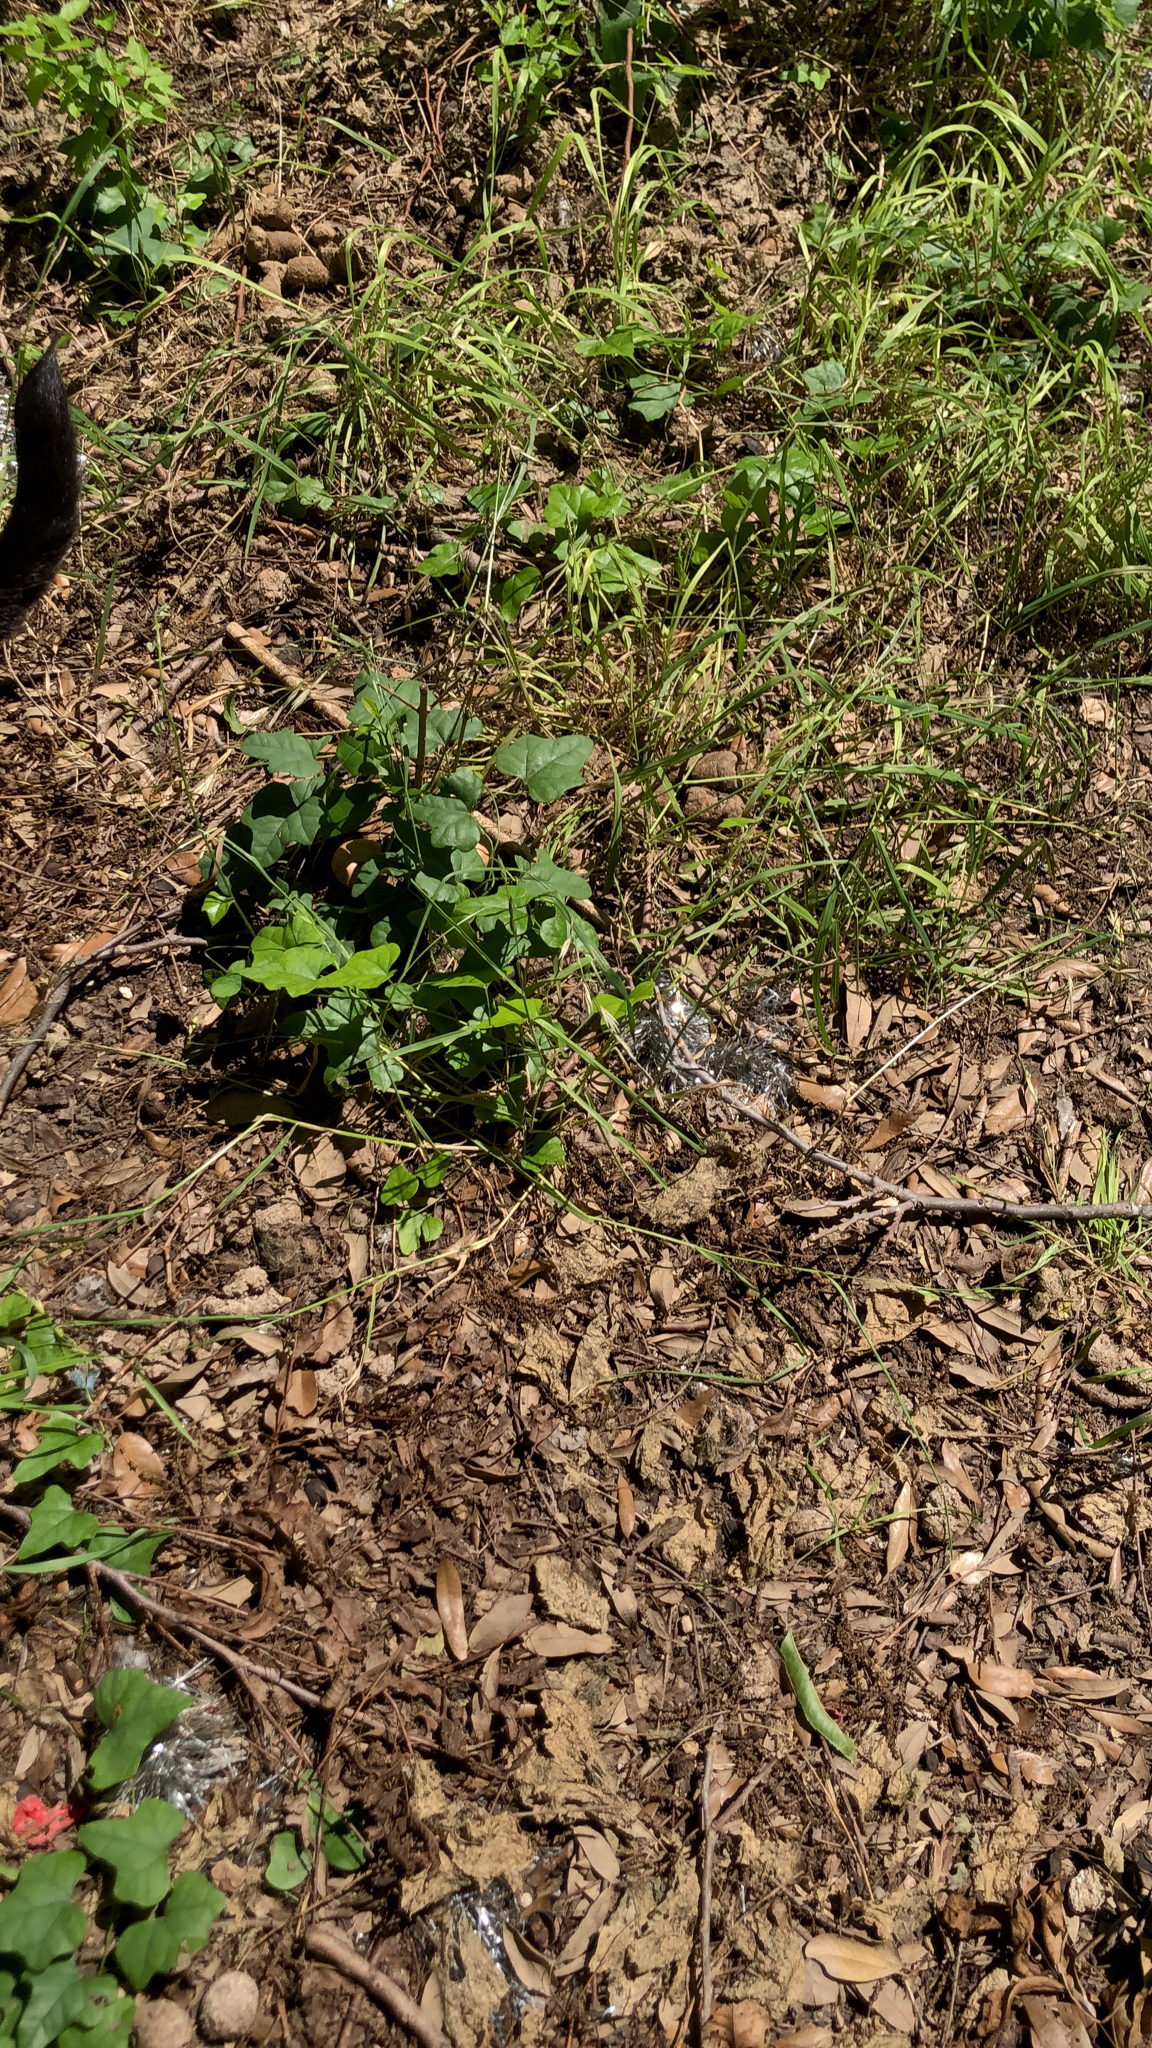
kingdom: Plantae
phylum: Tracheophyta
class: Magnoliopsida
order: Ranunculales
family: Menispermaceae
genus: Cocculus
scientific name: Cocculus carolinus
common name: Carolina moonseed
